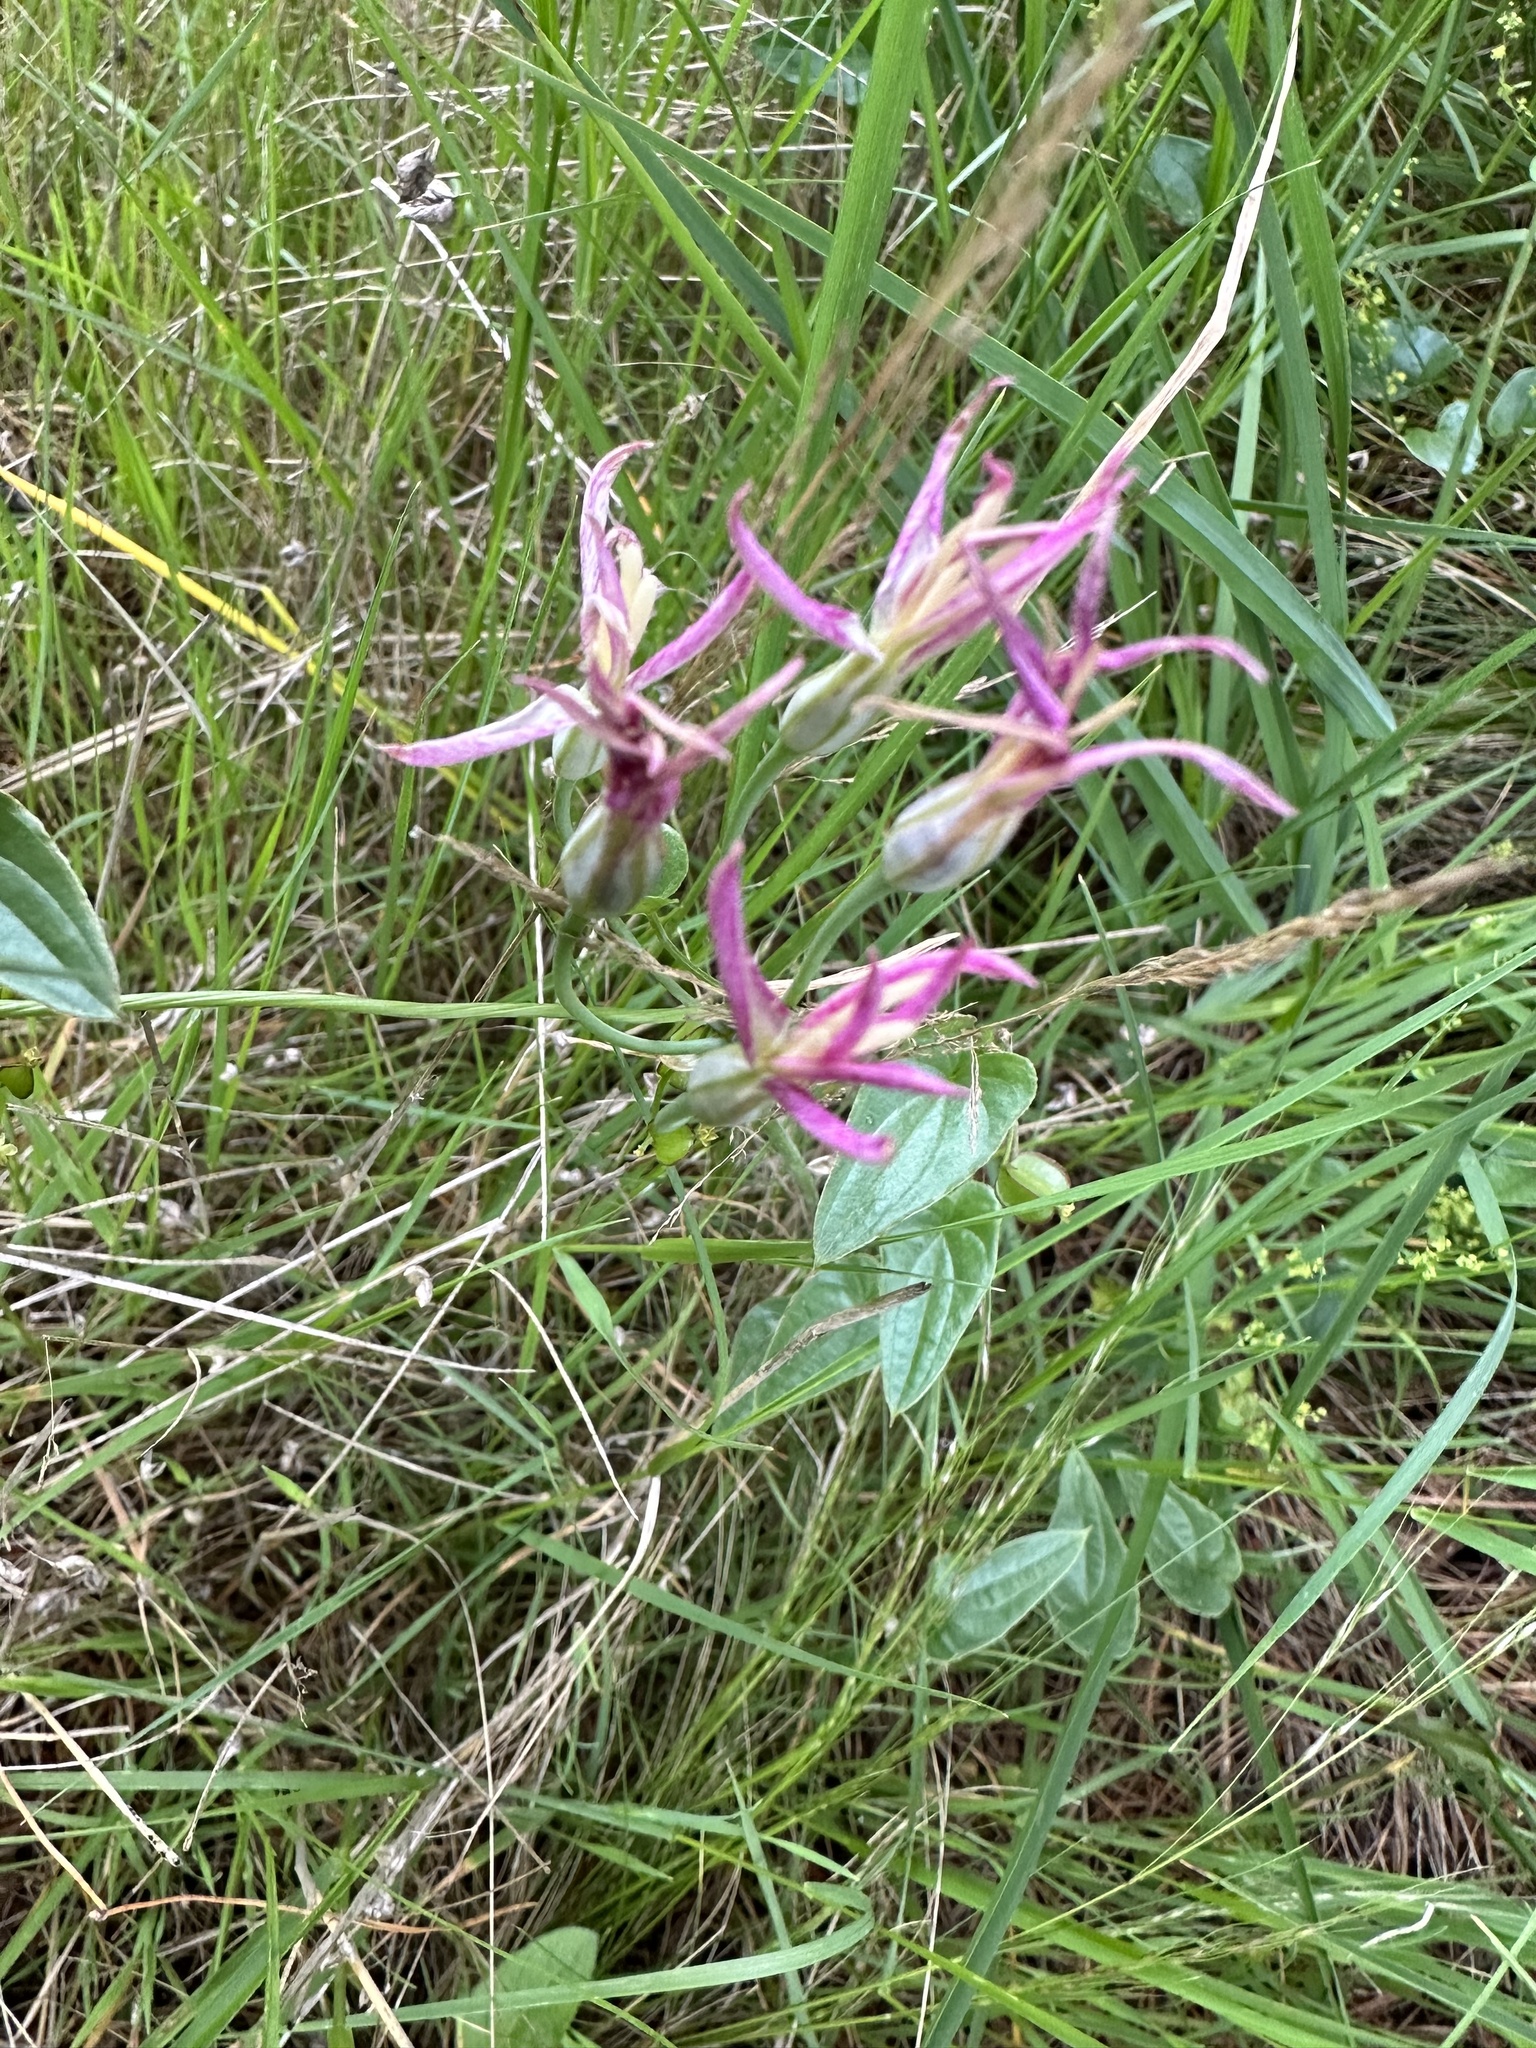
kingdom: Plantae
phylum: Tracheophyta
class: Liliopsida
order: Asparagales
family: Amaryllidaceae
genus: Leucocoryne
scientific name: Leucocoryne alliacea
